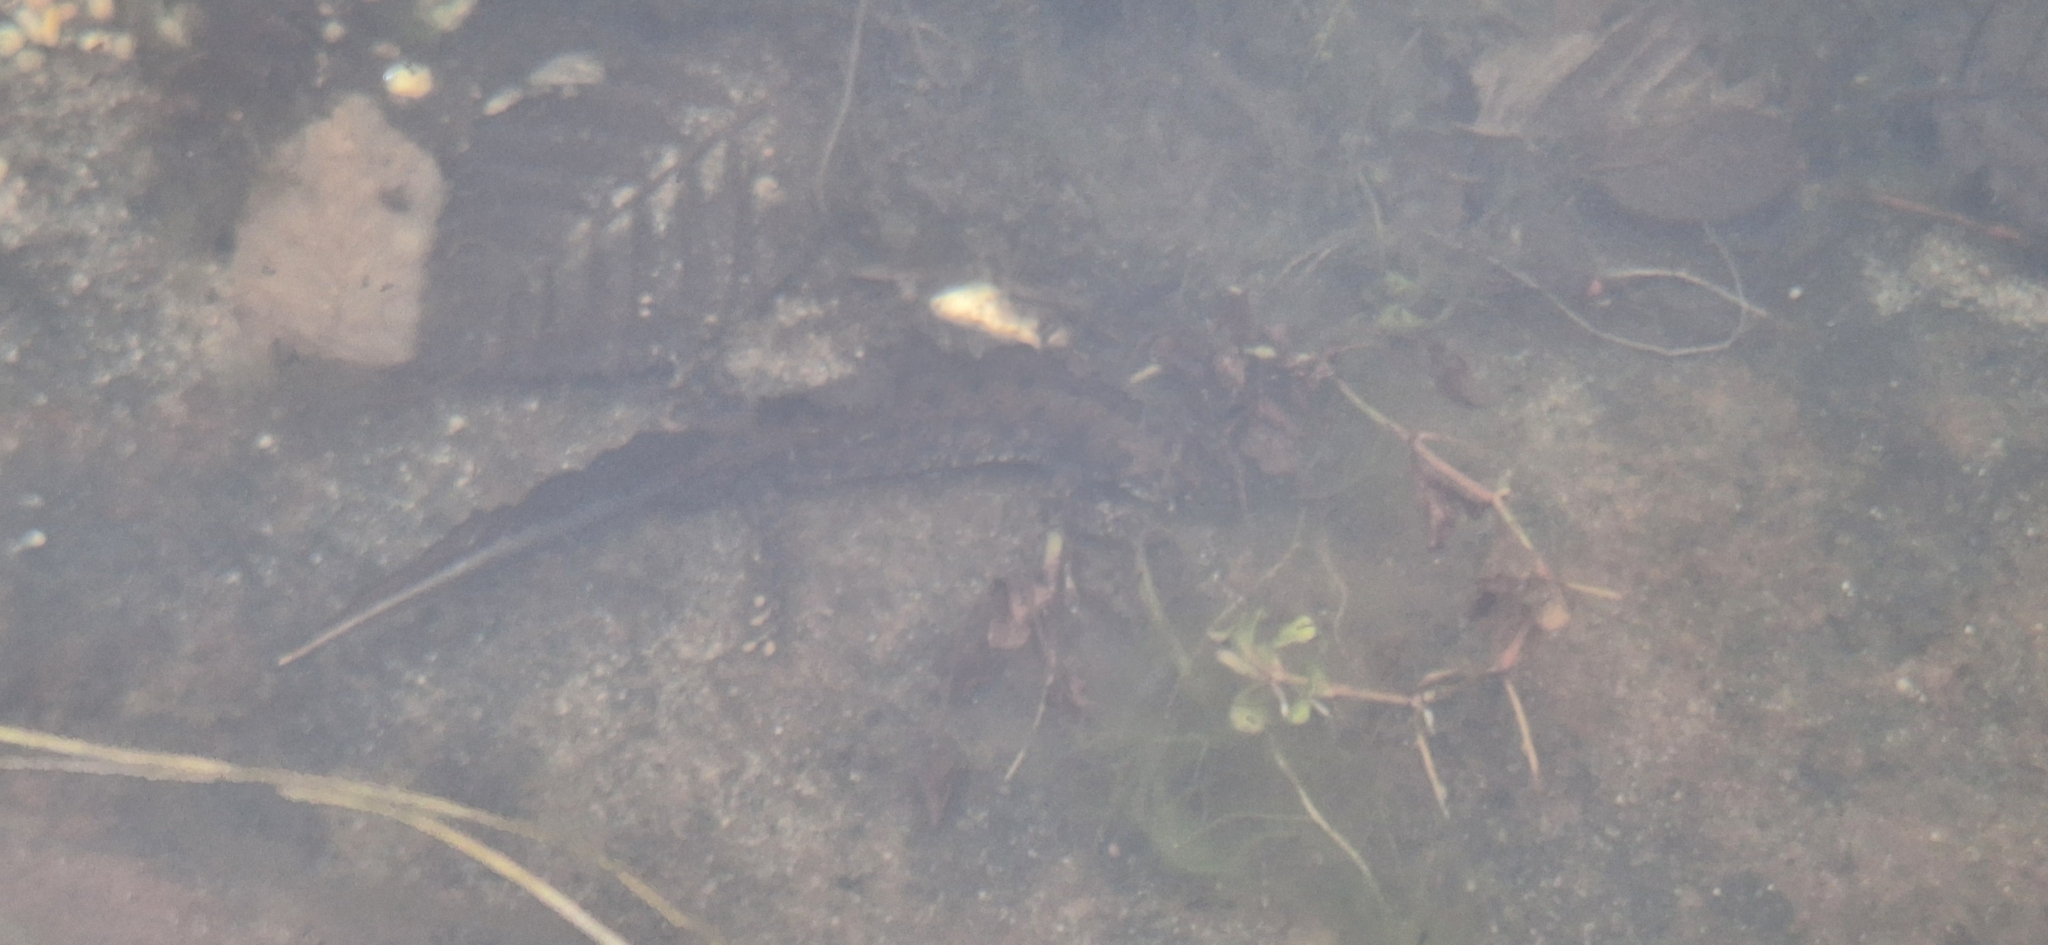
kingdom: Animalia
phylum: Chordata
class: Amphibia
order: Caudata
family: Salamandridae
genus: Triturus
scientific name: Triturus cristatus
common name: Crested newt
